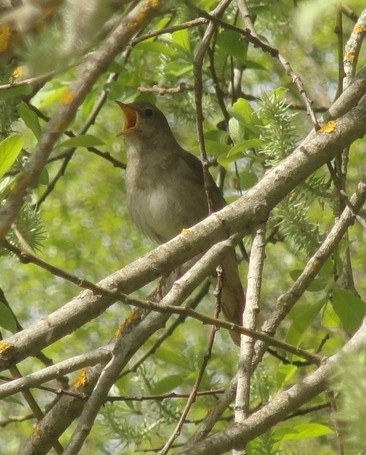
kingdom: Animalia
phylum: Chordata
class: Aves
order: Passeriformes
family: Muscicapidae
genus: Luscinia
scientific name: Luscinia luscinia
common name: Thrush nightingale
